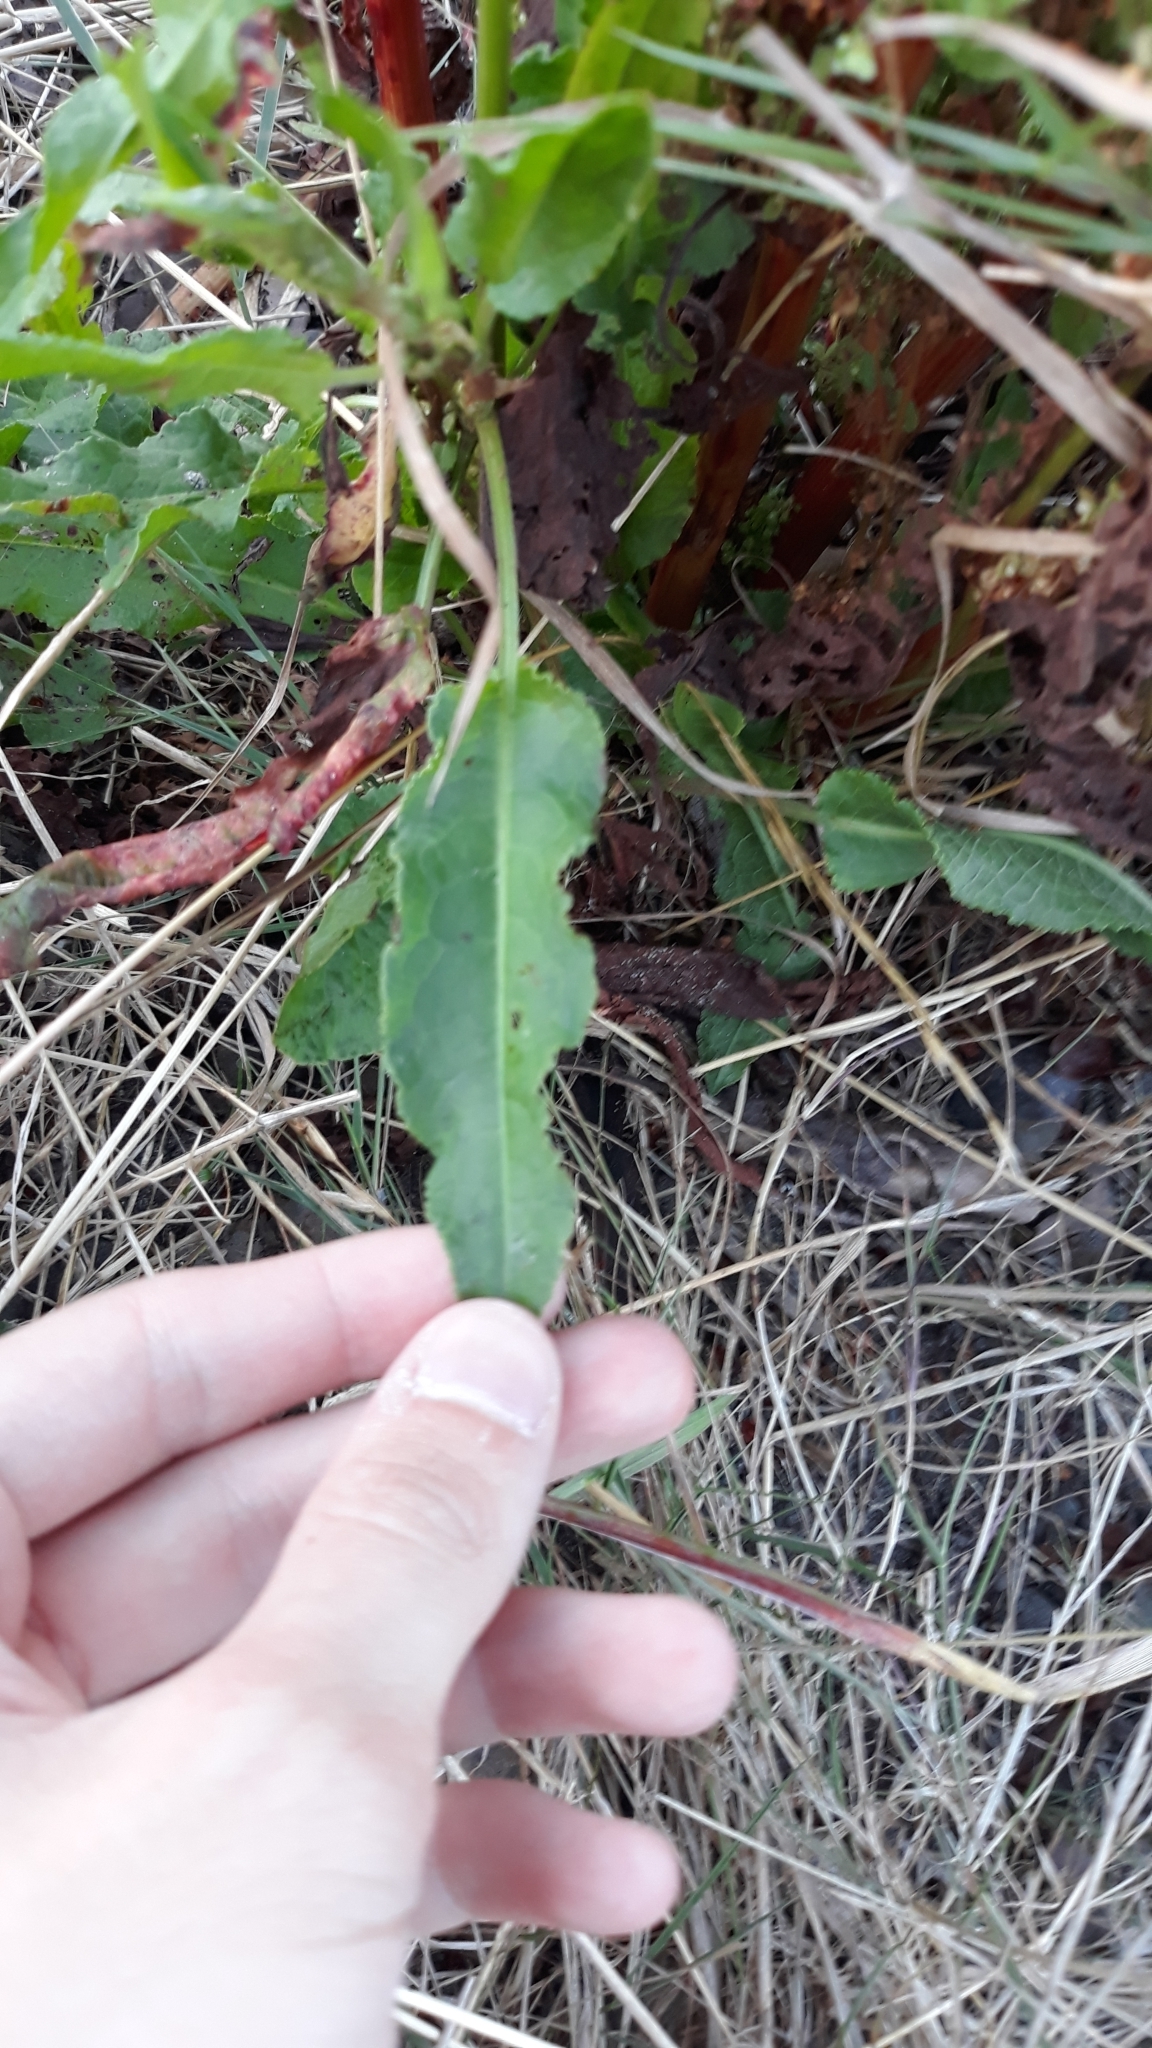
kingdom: Plantae
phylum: Tracheophyta
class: Magnoliopsida
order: Caryophyllales
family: Polygonaceae
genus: Rumex
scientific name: Rumex crispus
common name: Curled dock
